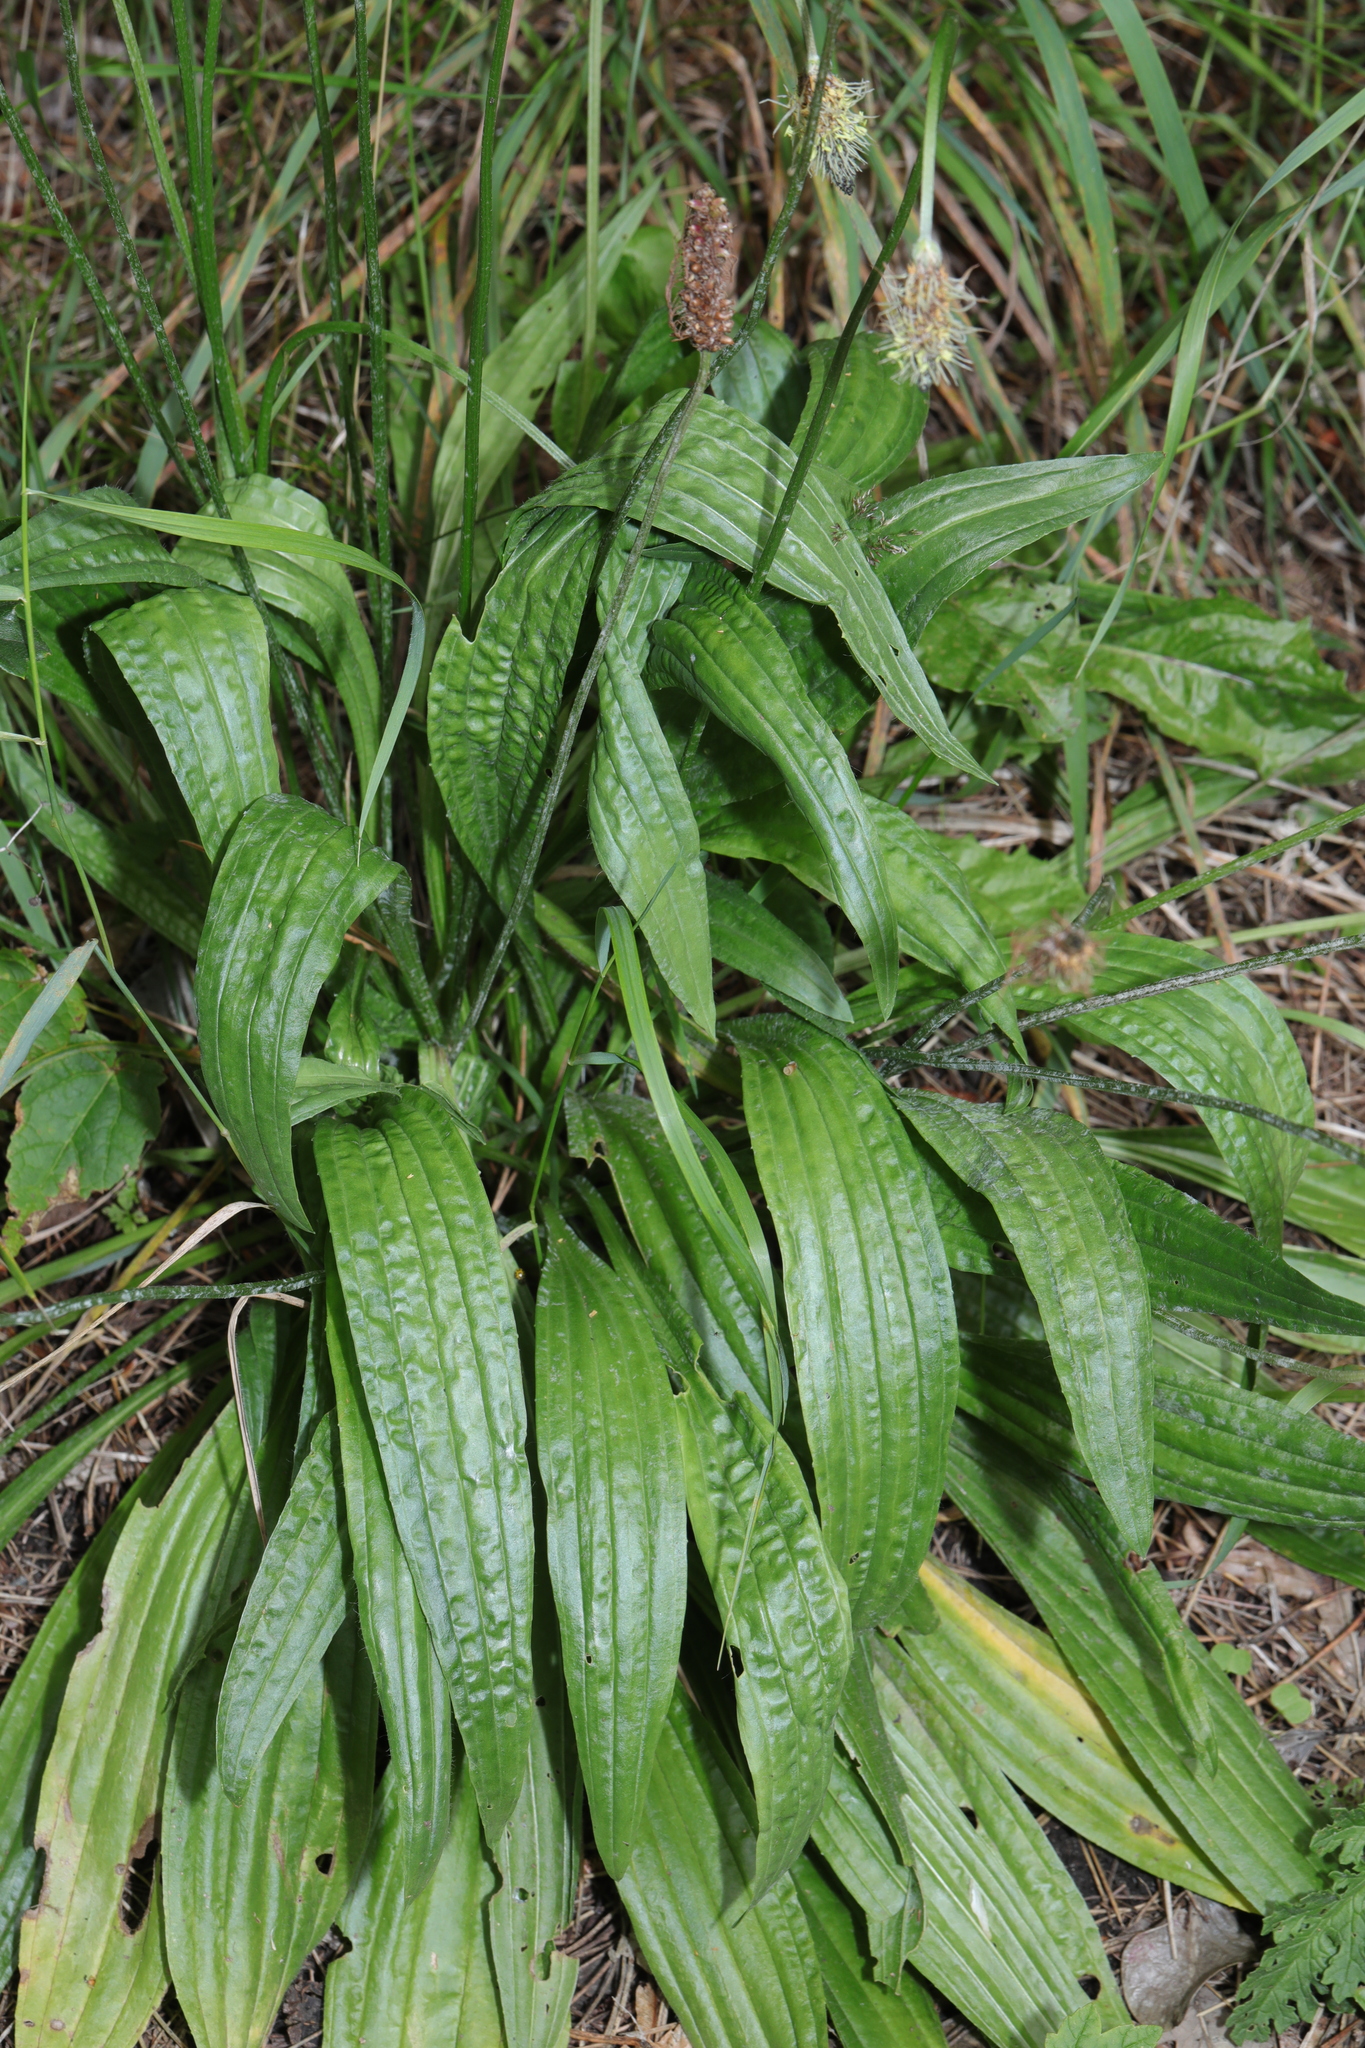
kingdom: Plantae
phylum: Tracheophyta
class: Magnoliopsida
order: Lamiales
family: Plantaginaceae
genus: Plantago
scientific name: Plantago lanceolata
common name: Ribwort plantain
